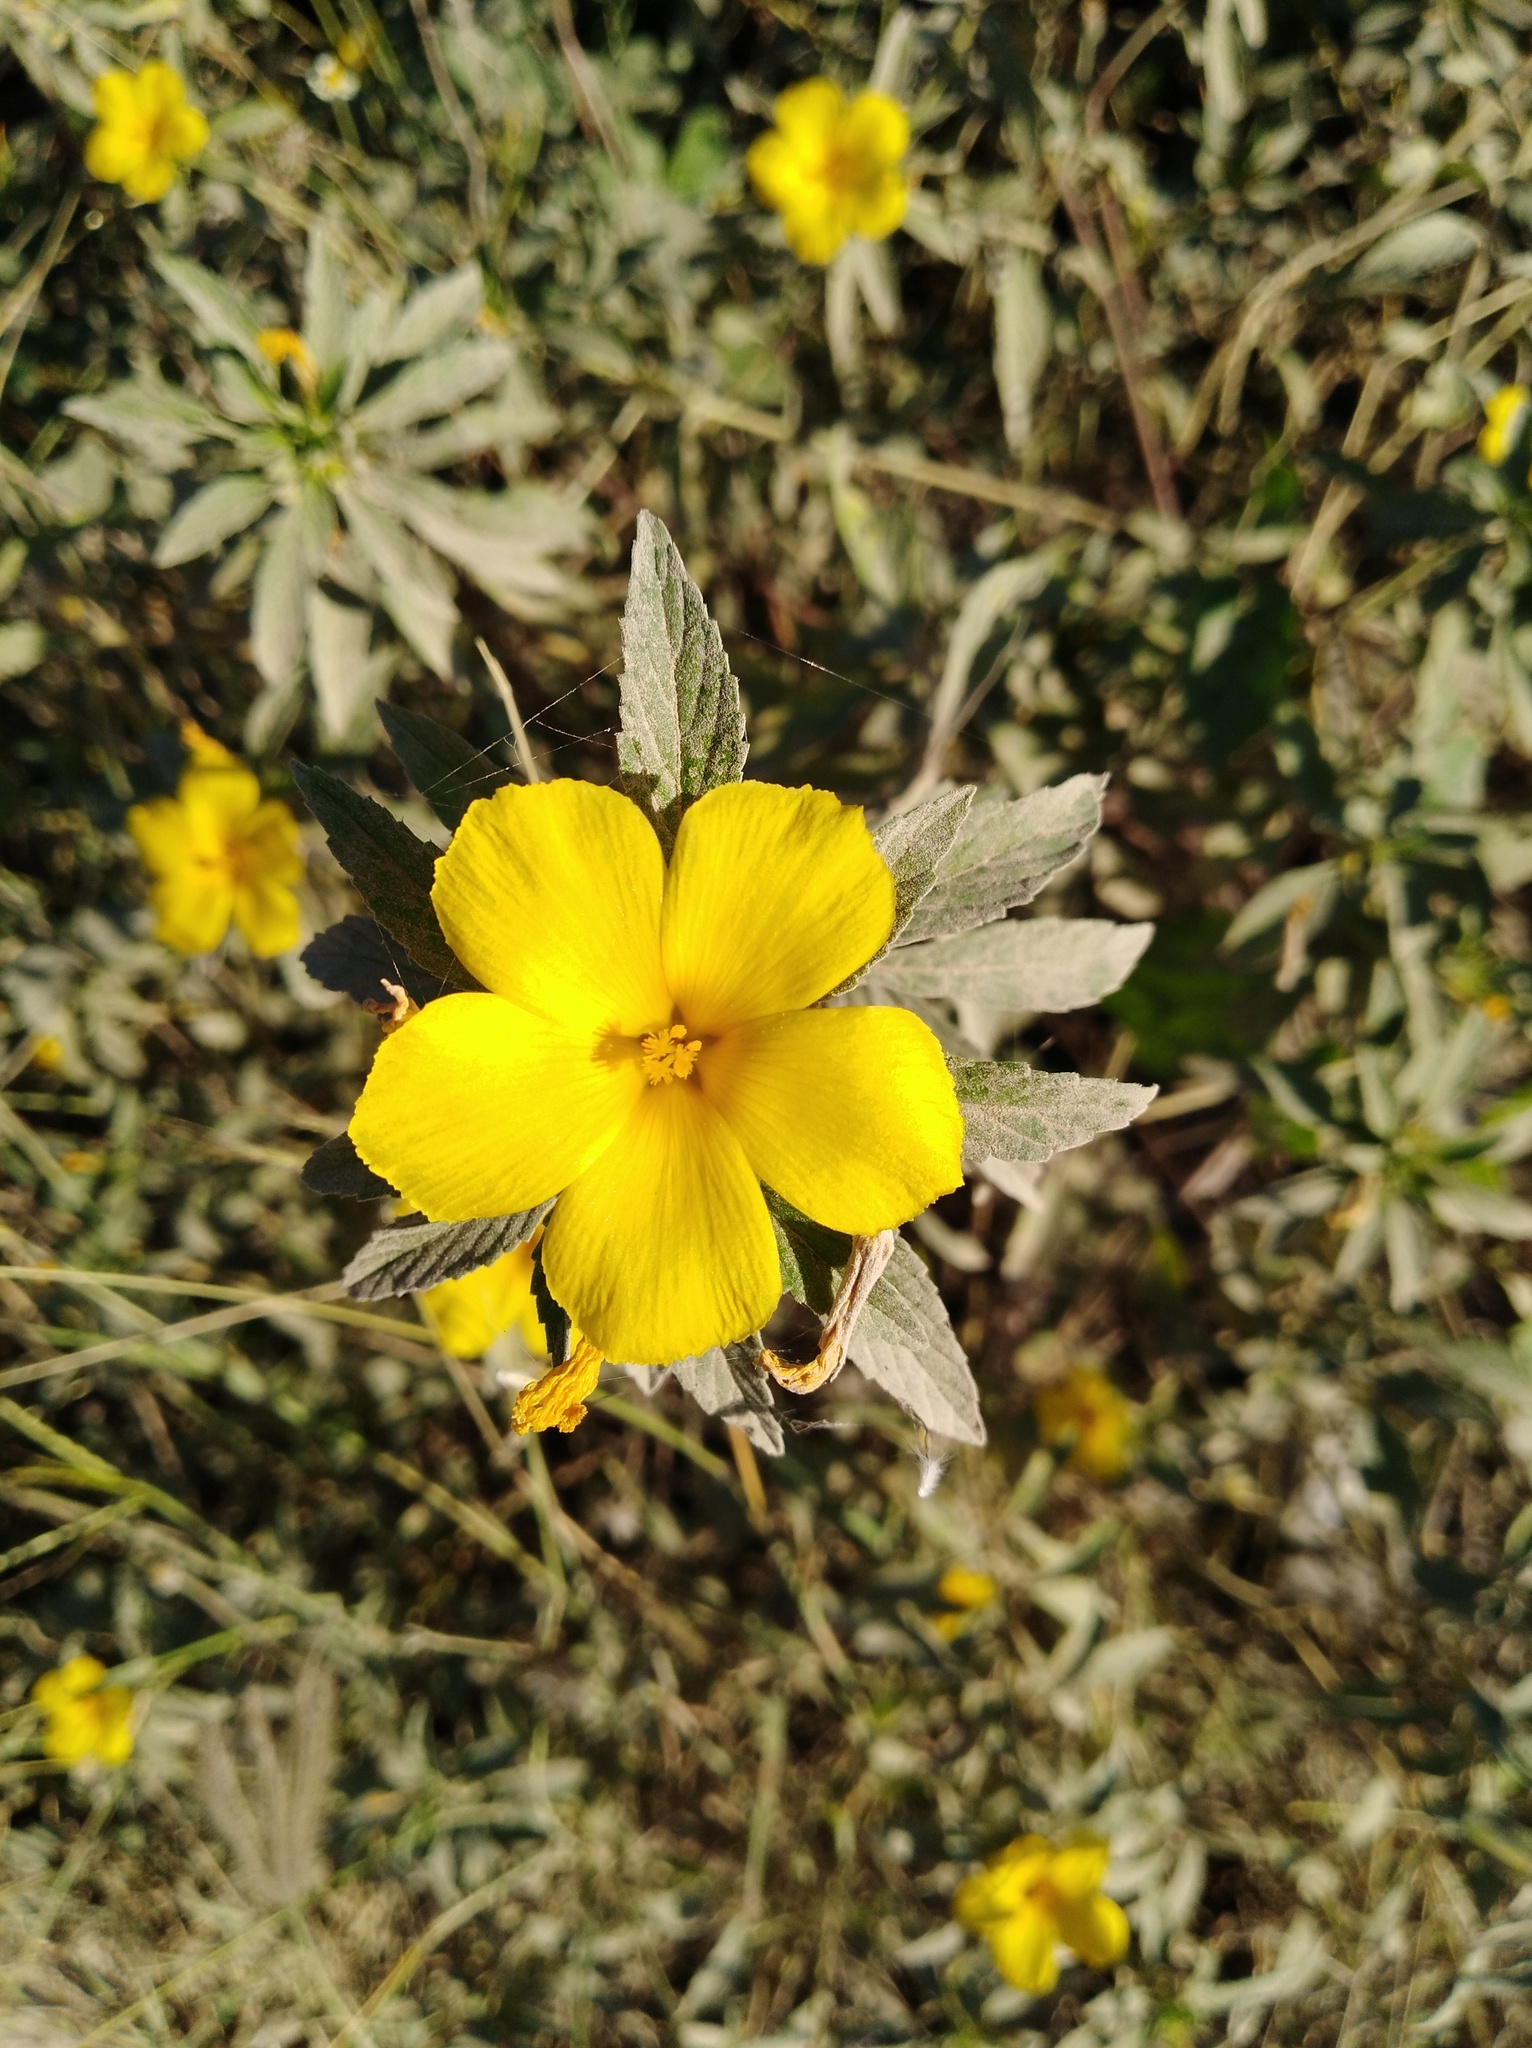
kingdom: Plantae
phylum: Tracheophyta
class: Magnoliopsida
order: Malpighiales
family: Turneraceae
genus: Turnera
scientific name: Turnera ulmifolia
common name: Ramgoat dashalong
